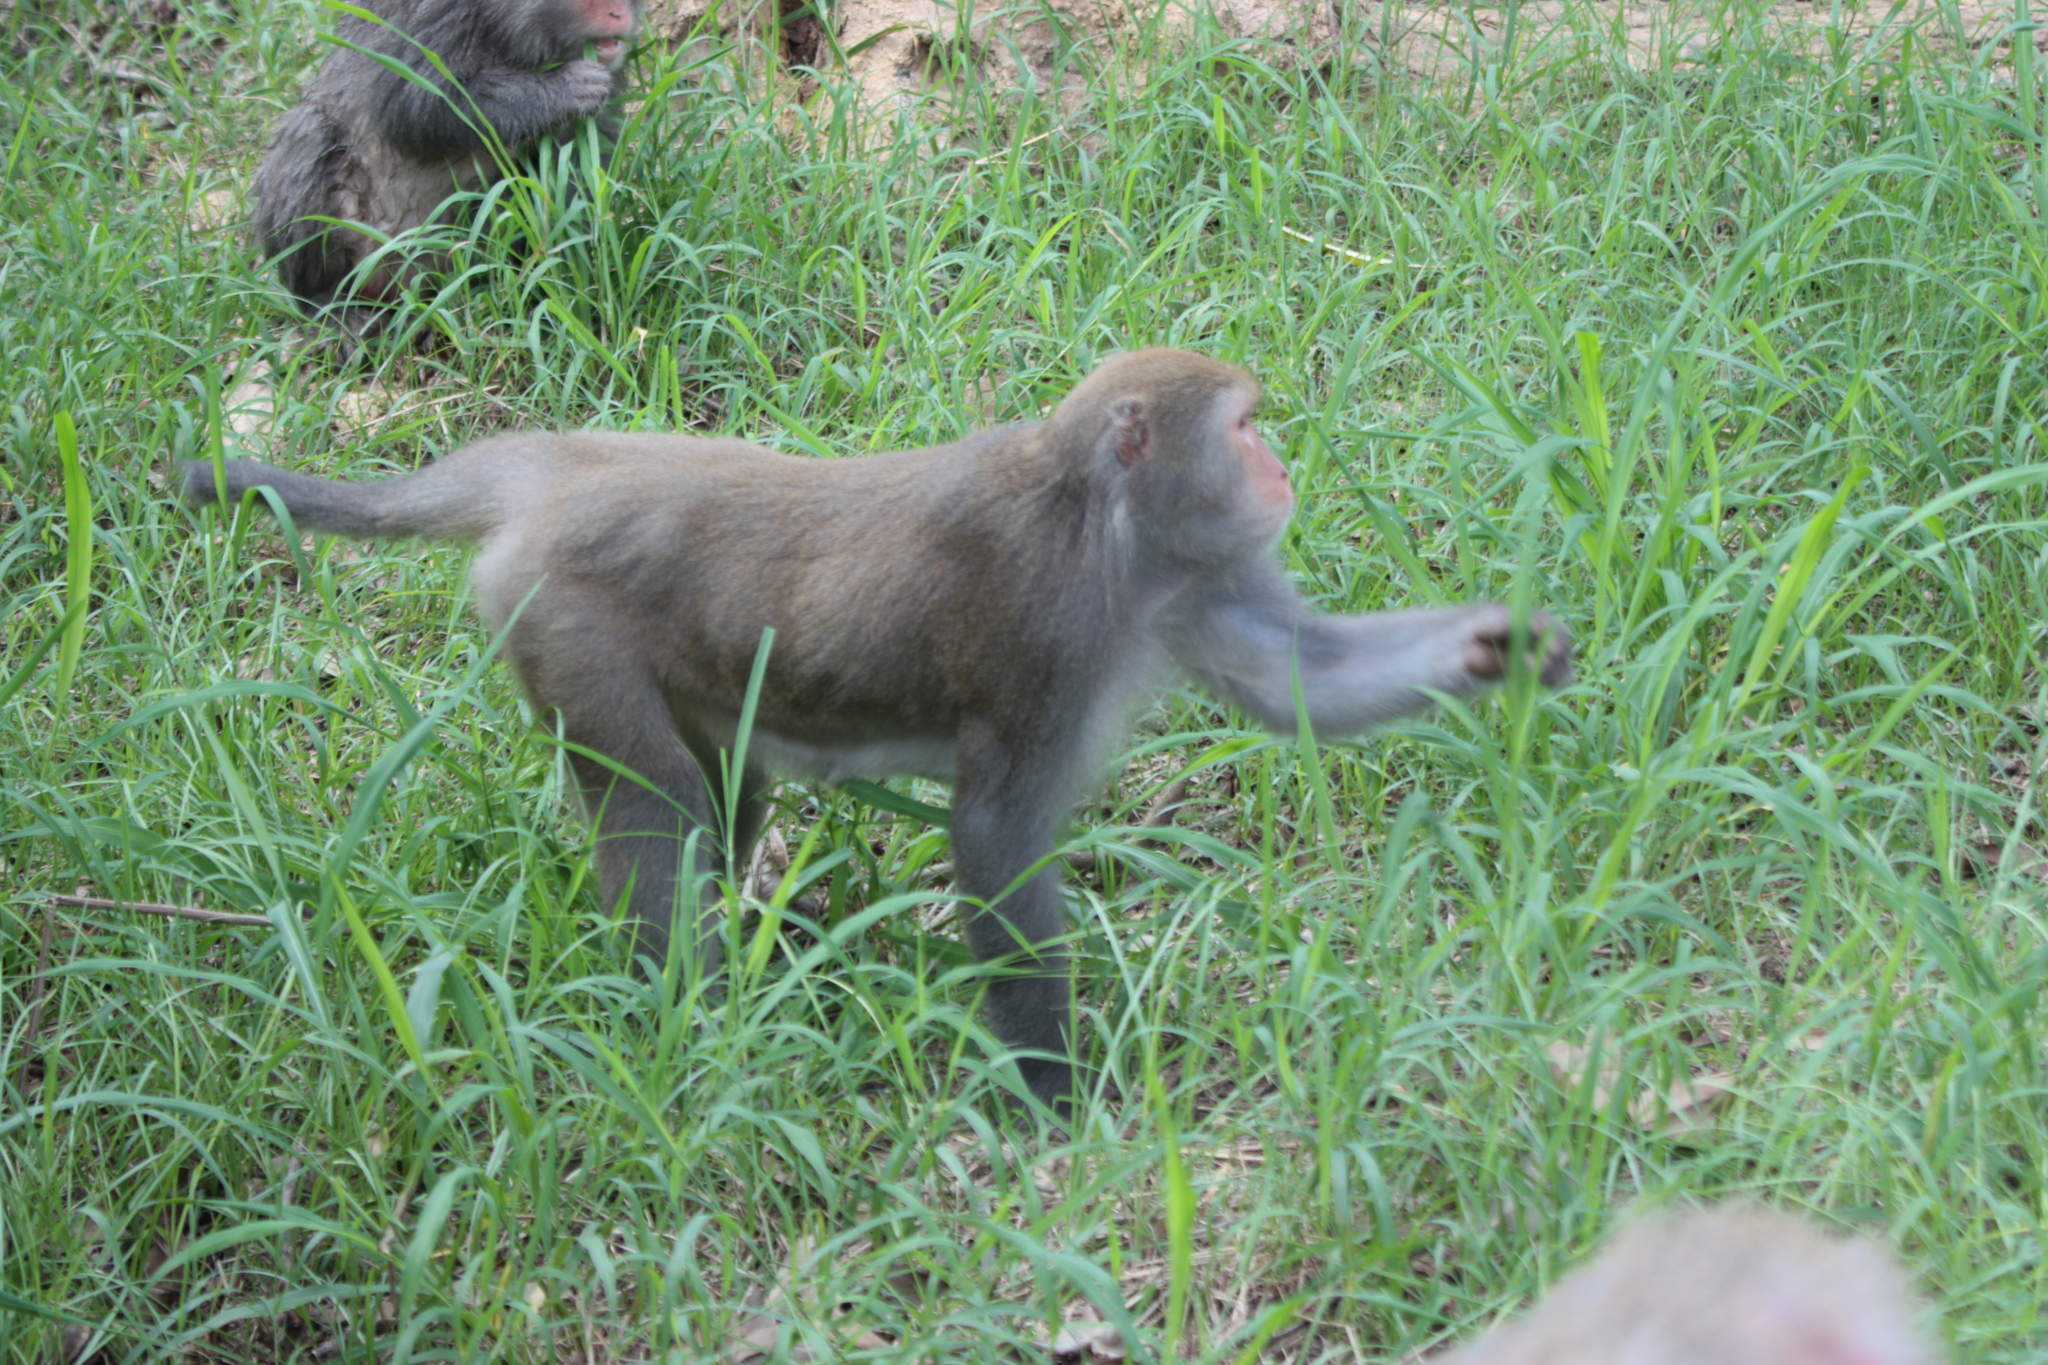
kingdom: Animalia
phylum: Chordata
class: Mammalia
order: Primates
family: Cercopithecidae
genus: Macaca
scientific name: Macaca cyclopis
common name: Formosan rock macaque
